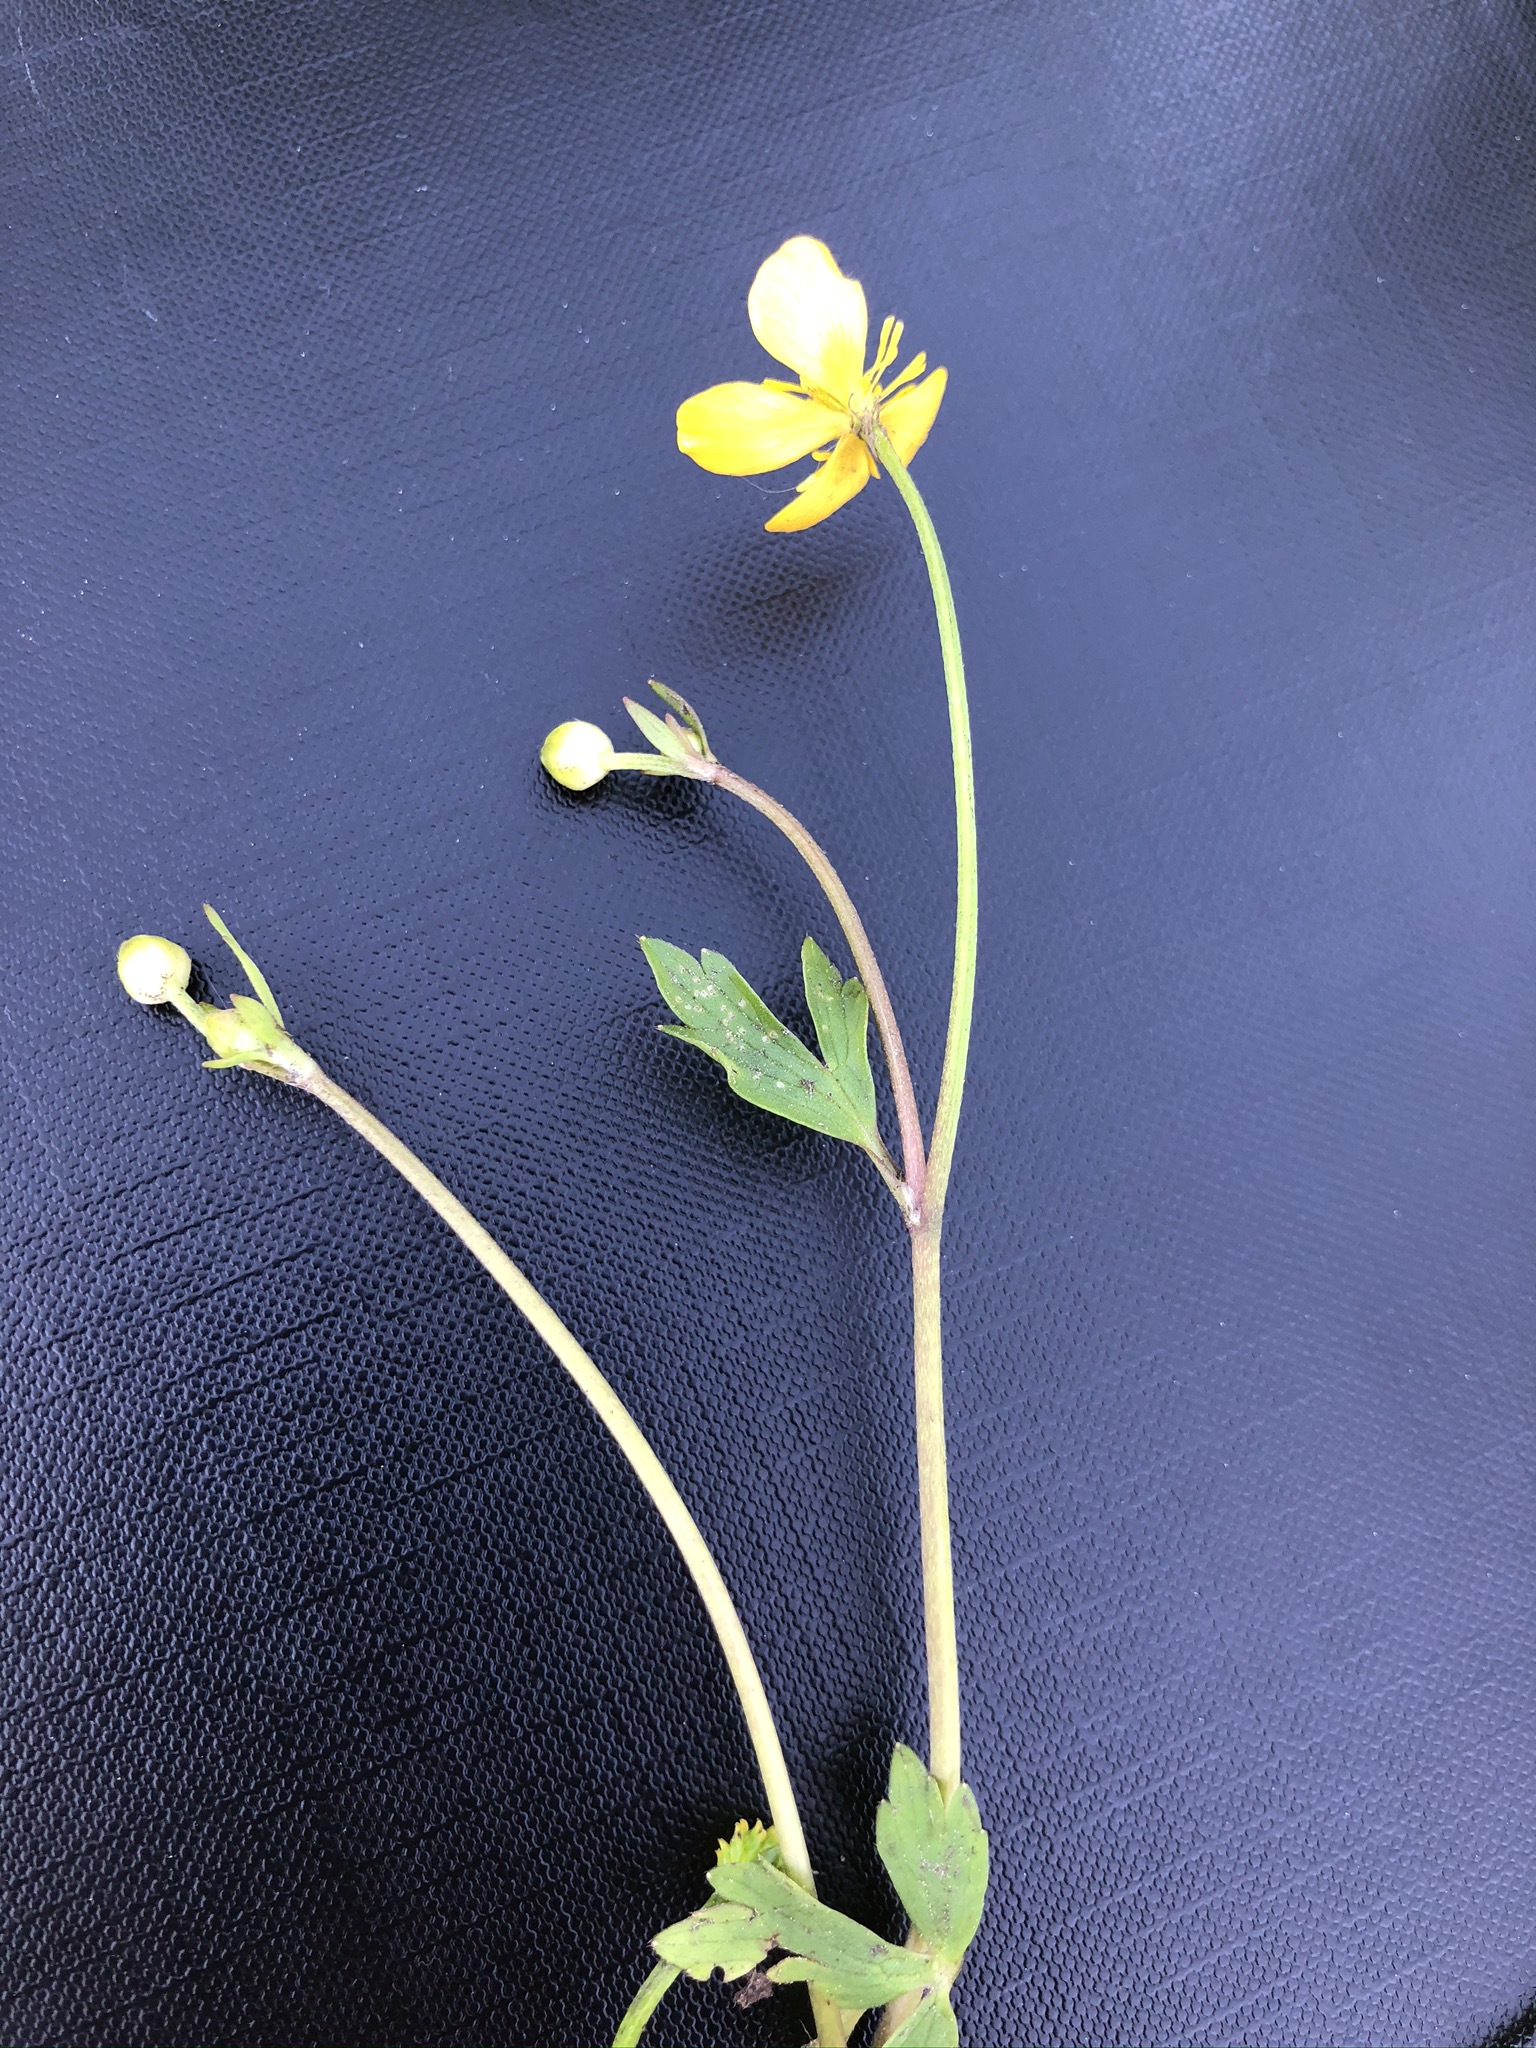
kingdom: Plantae
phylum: Tracheophyta
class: Magnoliopsida
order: Ranunculales
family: Ranunculaceae
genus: Ranunculus
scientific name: Ranunculus repens
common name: Creeping buttercup
